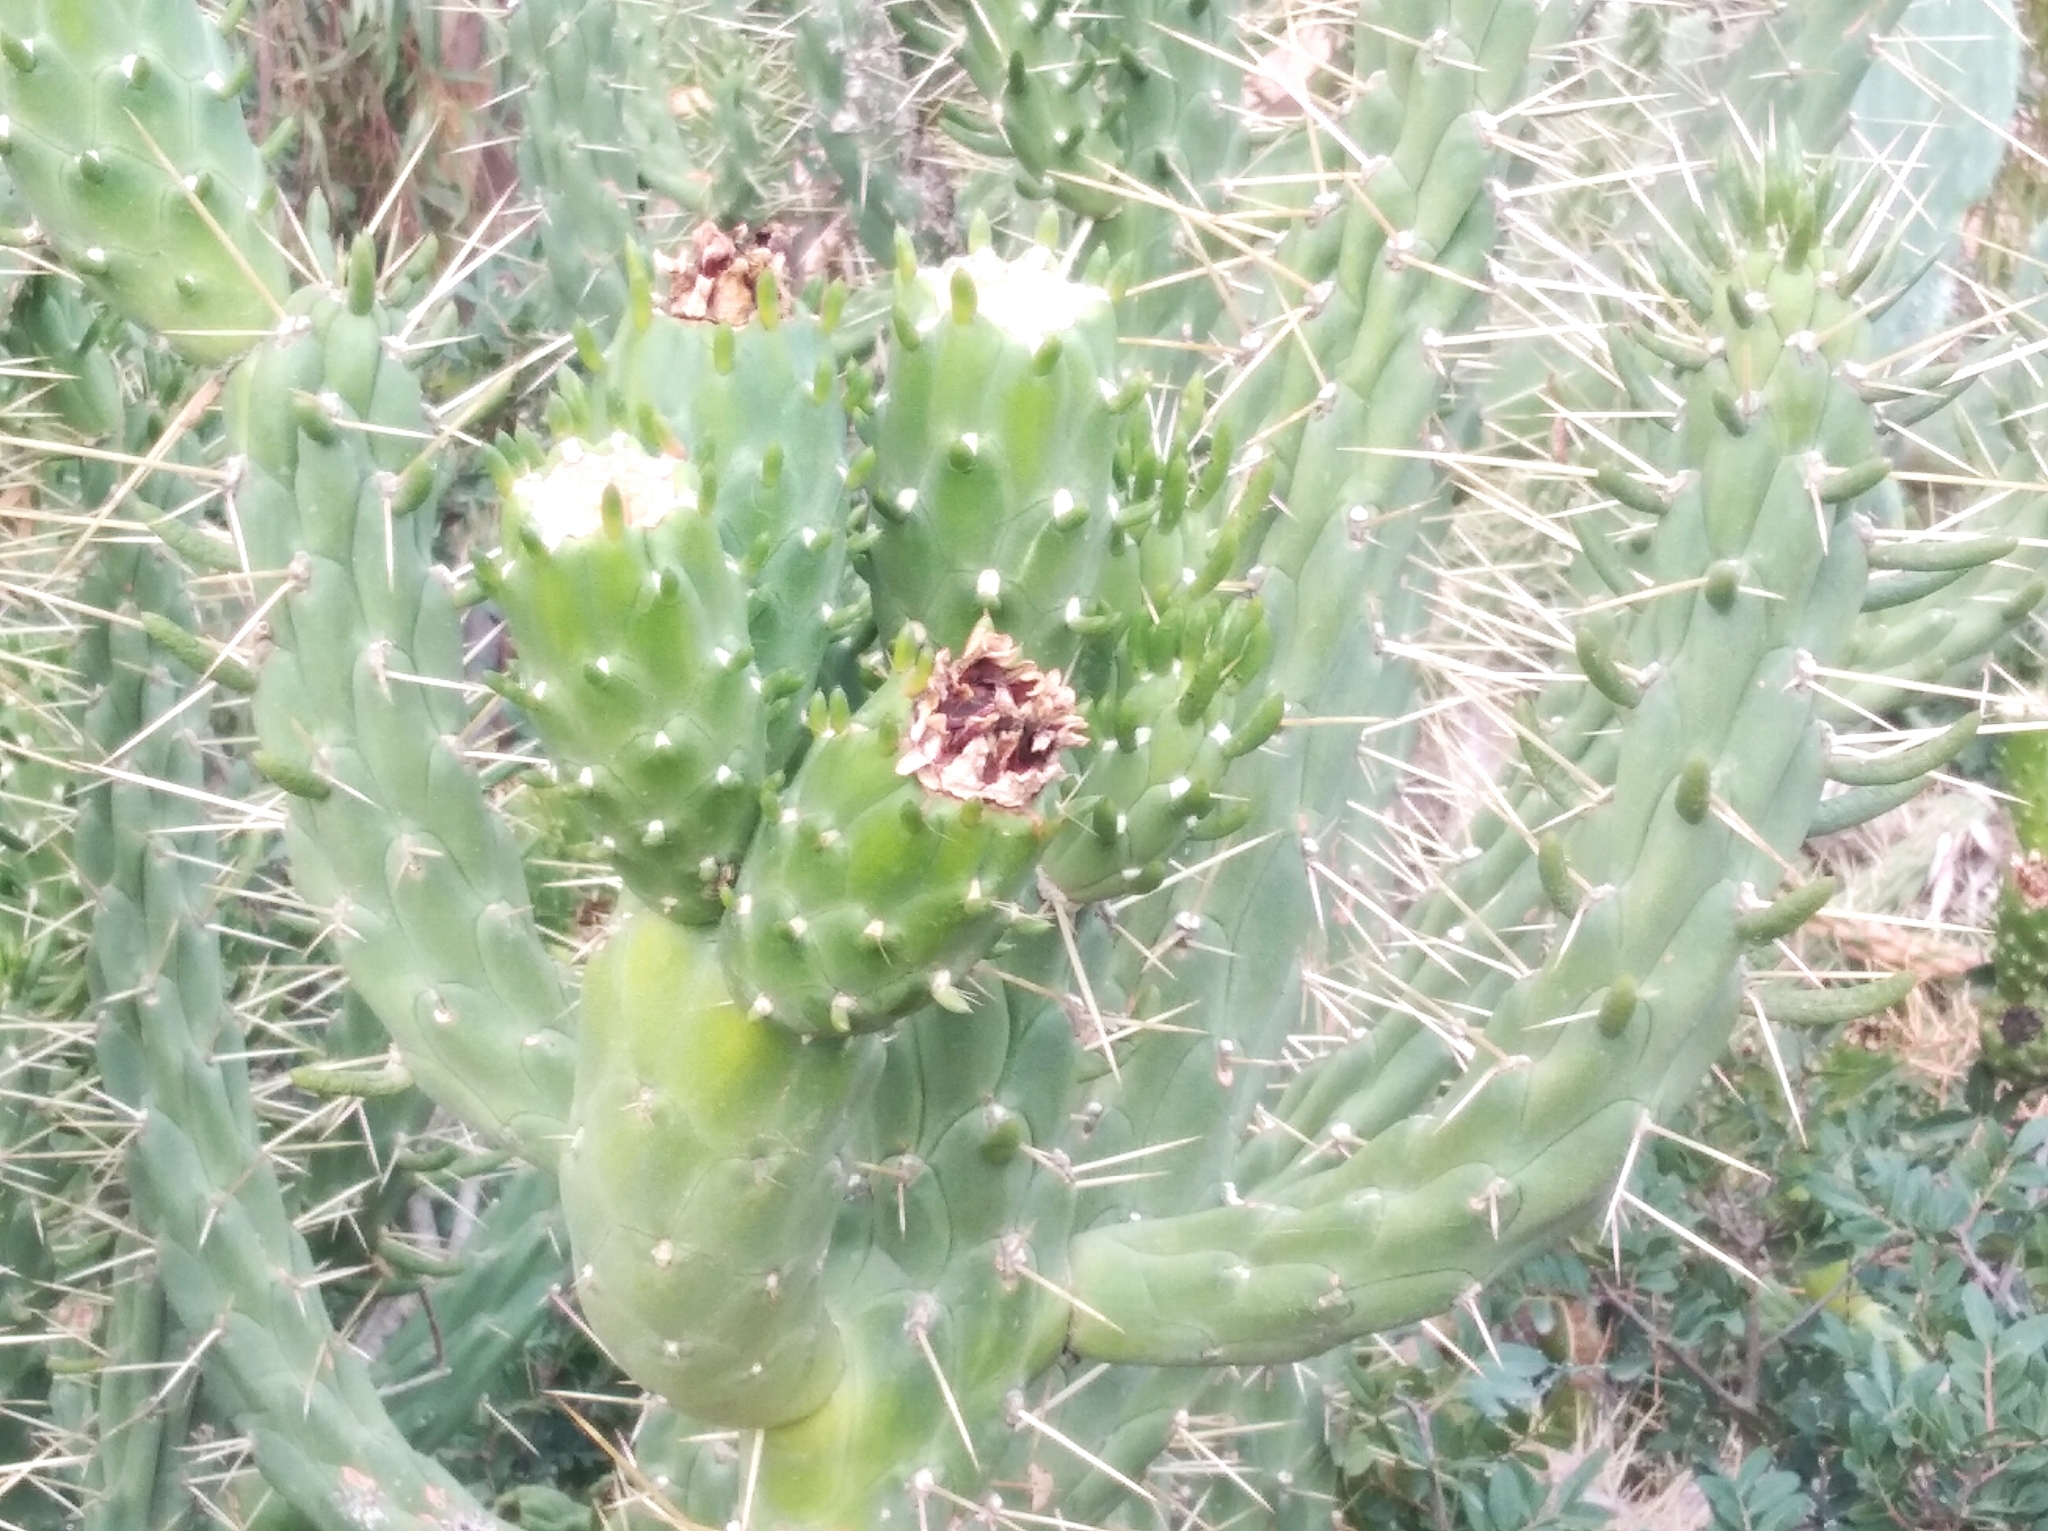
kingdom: Plantae
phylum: Tracheophyta
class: Magnoliopsida
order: Caryophyllales
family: Cactaceae
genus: Austrocylindropuntia
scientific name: Austrocylindropuntia subulata
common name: Eve's needle cactus
